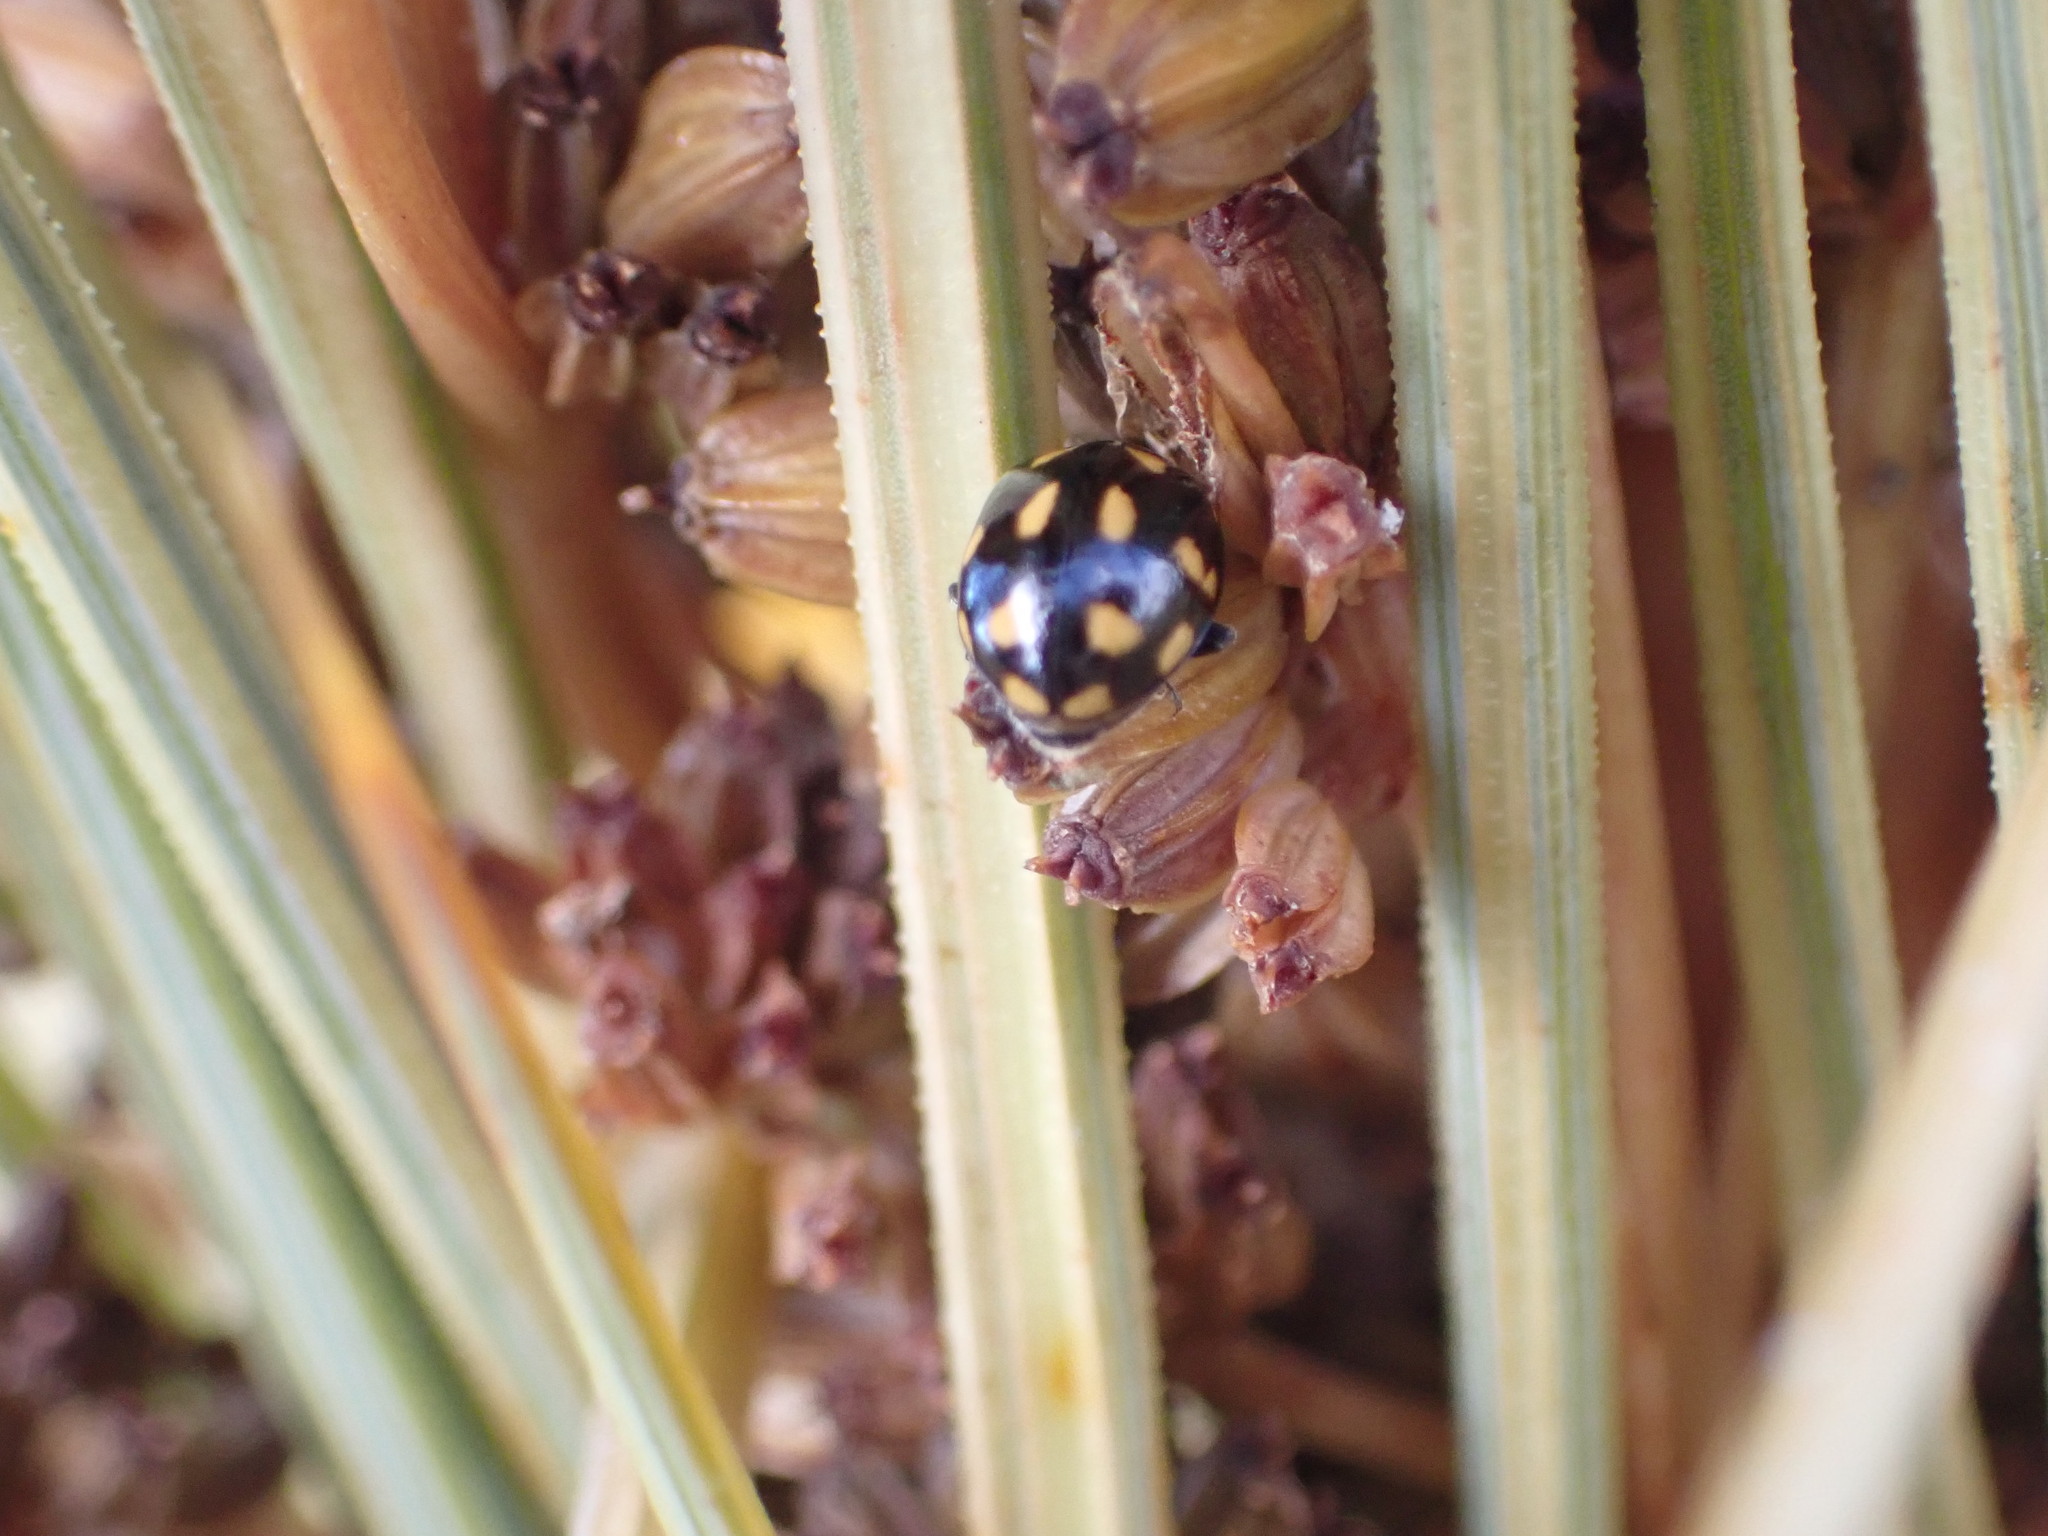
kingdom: Animalia
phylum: Arthropoda
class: Insecta
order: Coleoptera
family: Coccinellidae
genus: Coccinella
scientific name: Coccinella leonina
